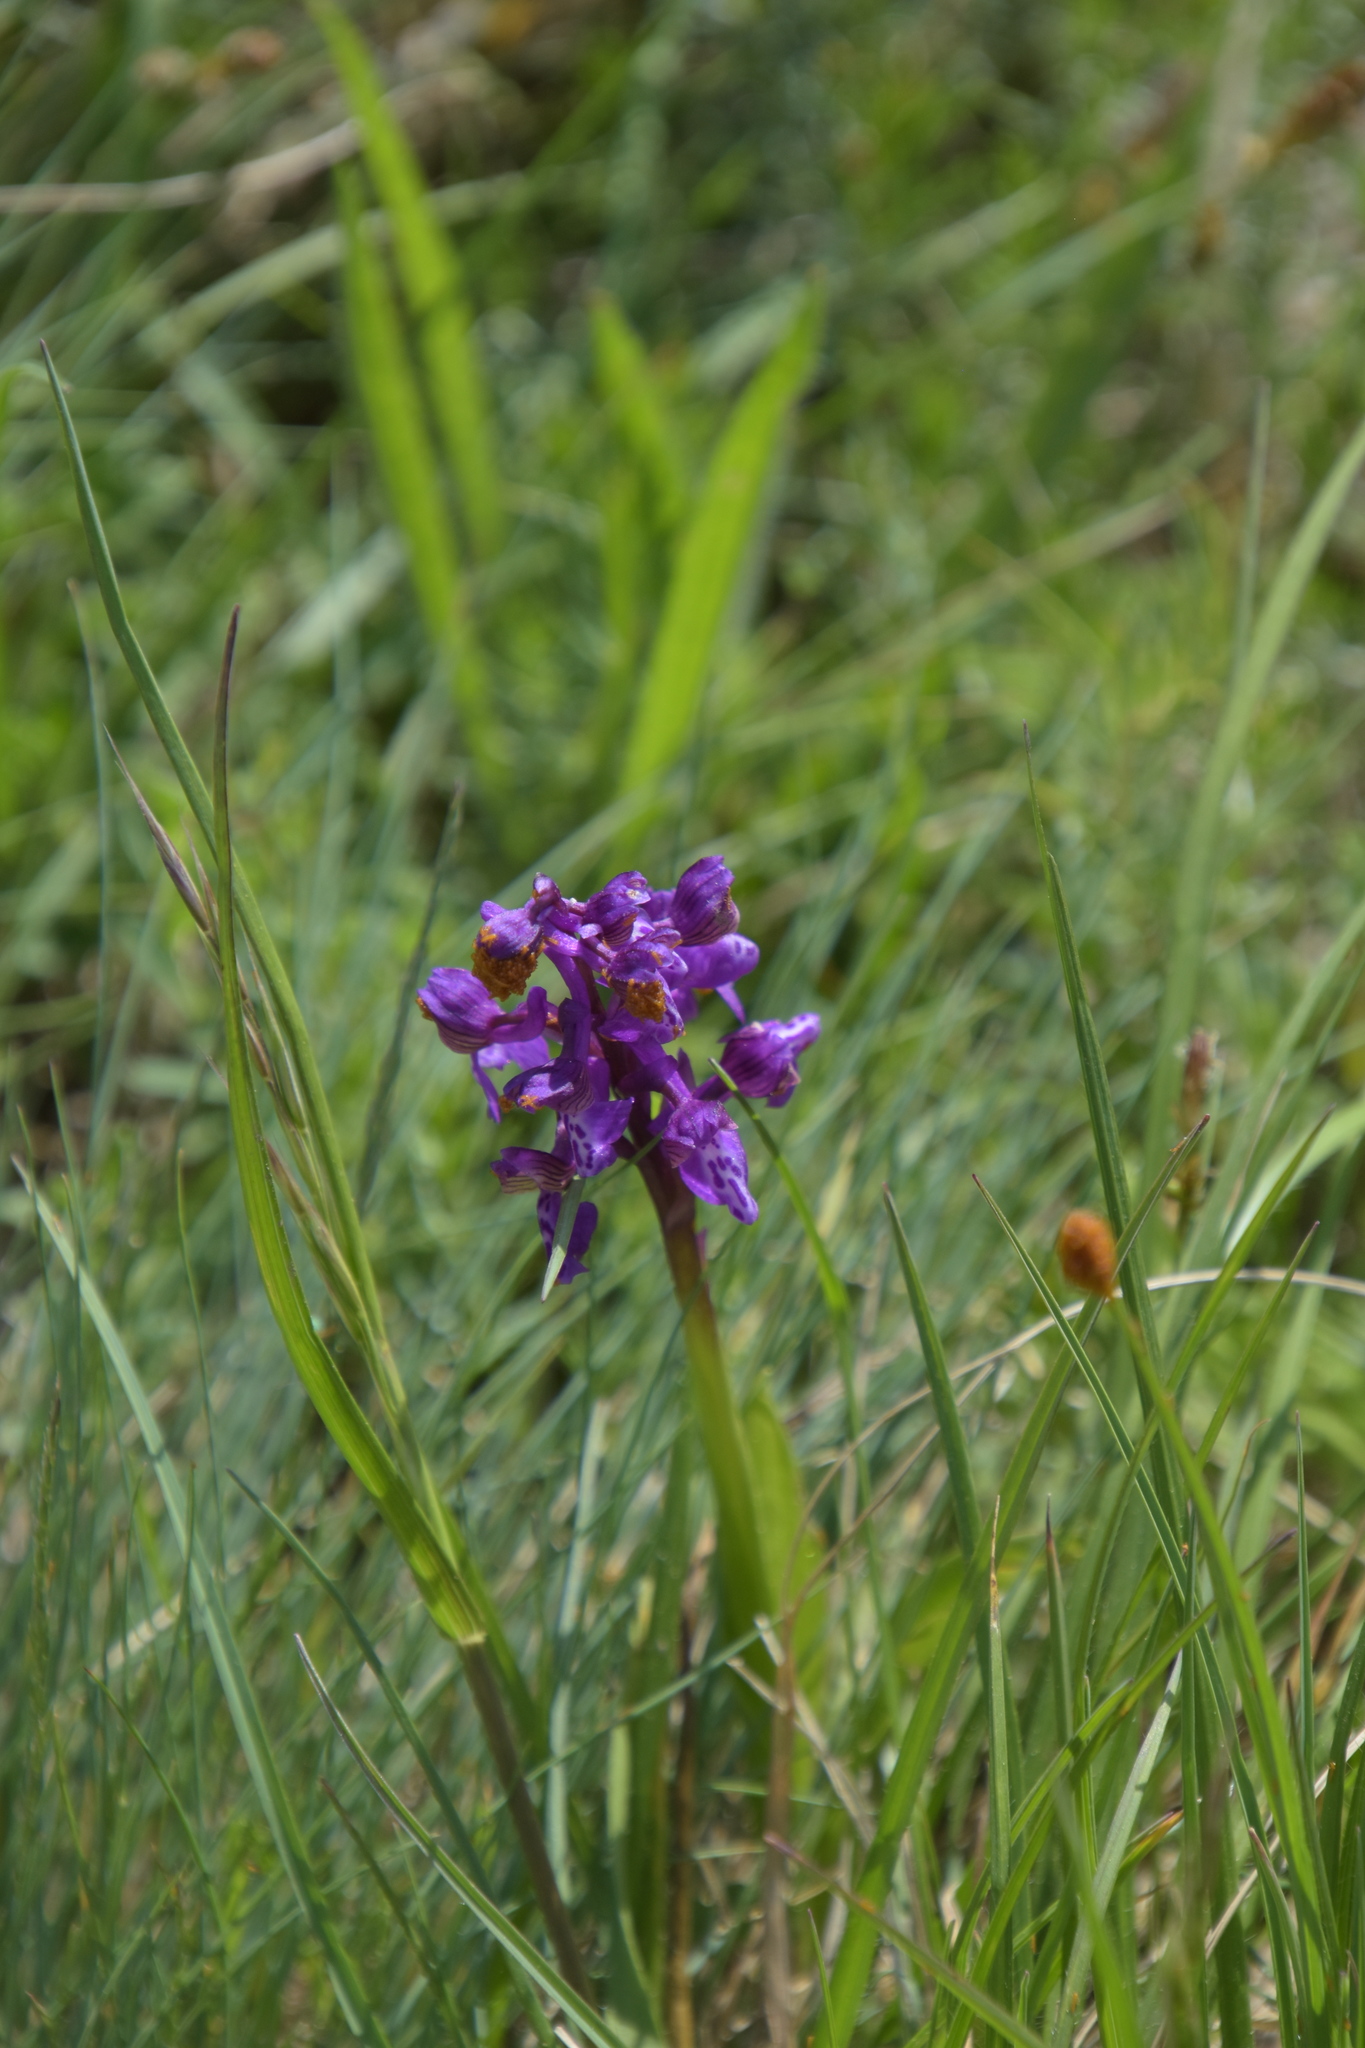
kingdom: Plantae
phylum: Tracheophyta
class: Liliopsida
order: Asparagales
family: Orchidaceae
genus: Anacamptis
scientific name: Anacamptis morio
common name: Green-winged orchid
